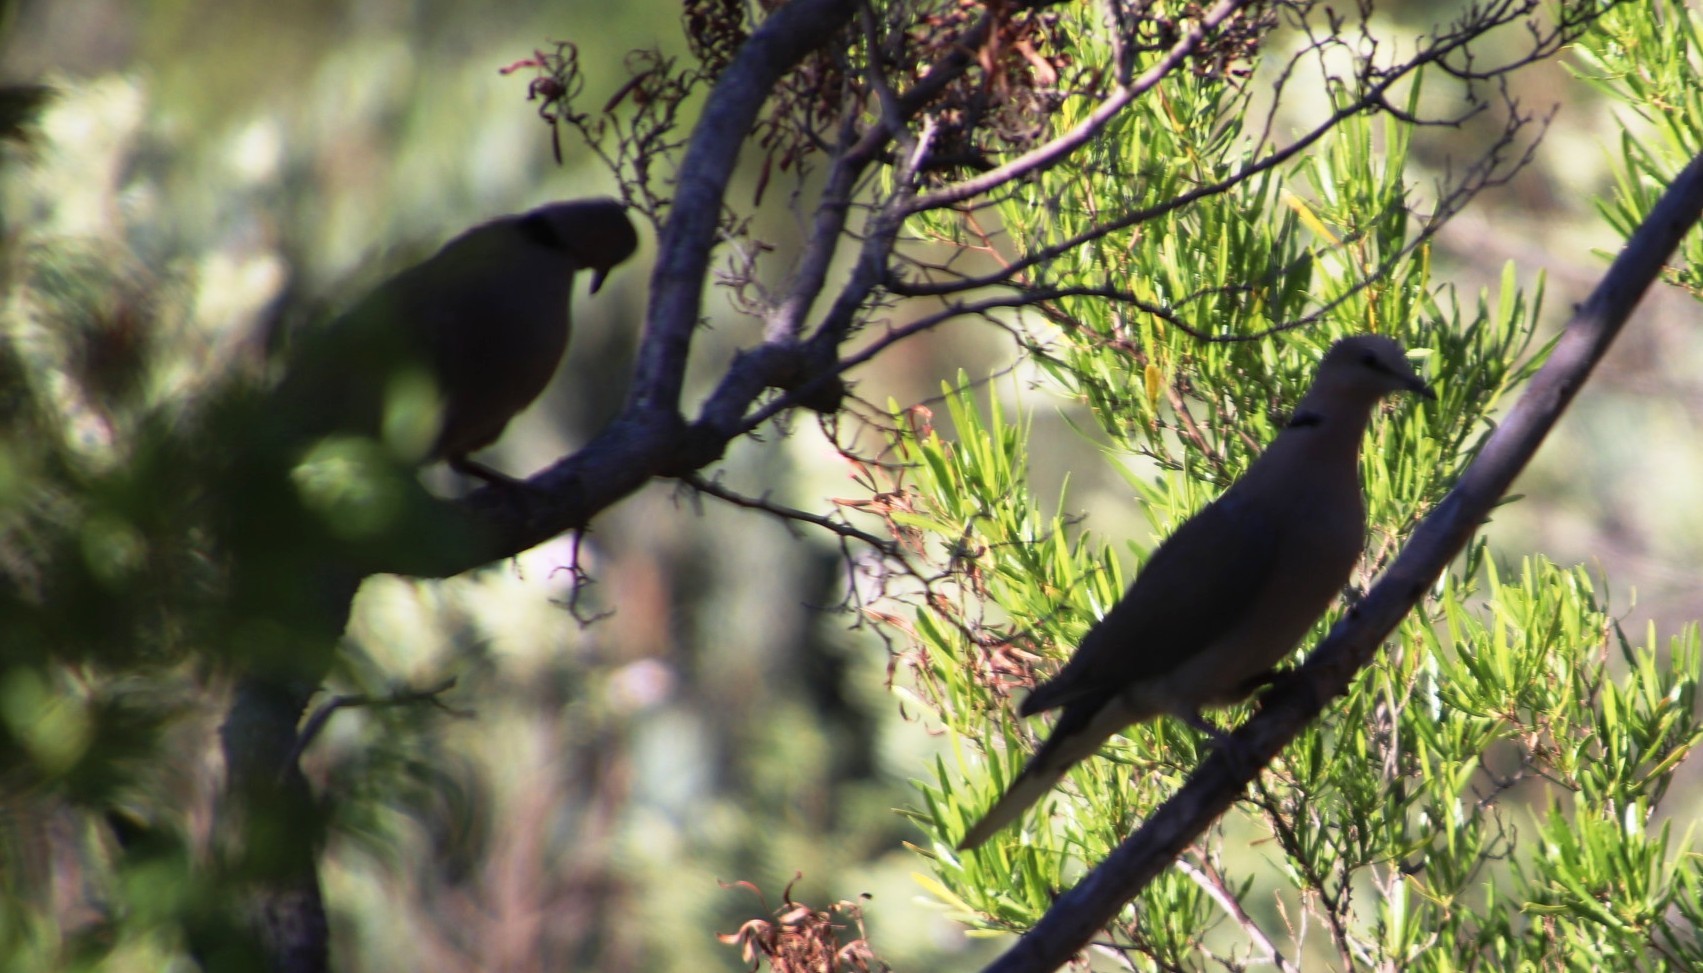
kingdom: Animalia
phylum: Chordata
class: Aves
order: Columbiformes
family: Columbidae
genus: Streptopelia
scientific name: Streptopelia semitorquata
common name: Red-eyed dove
